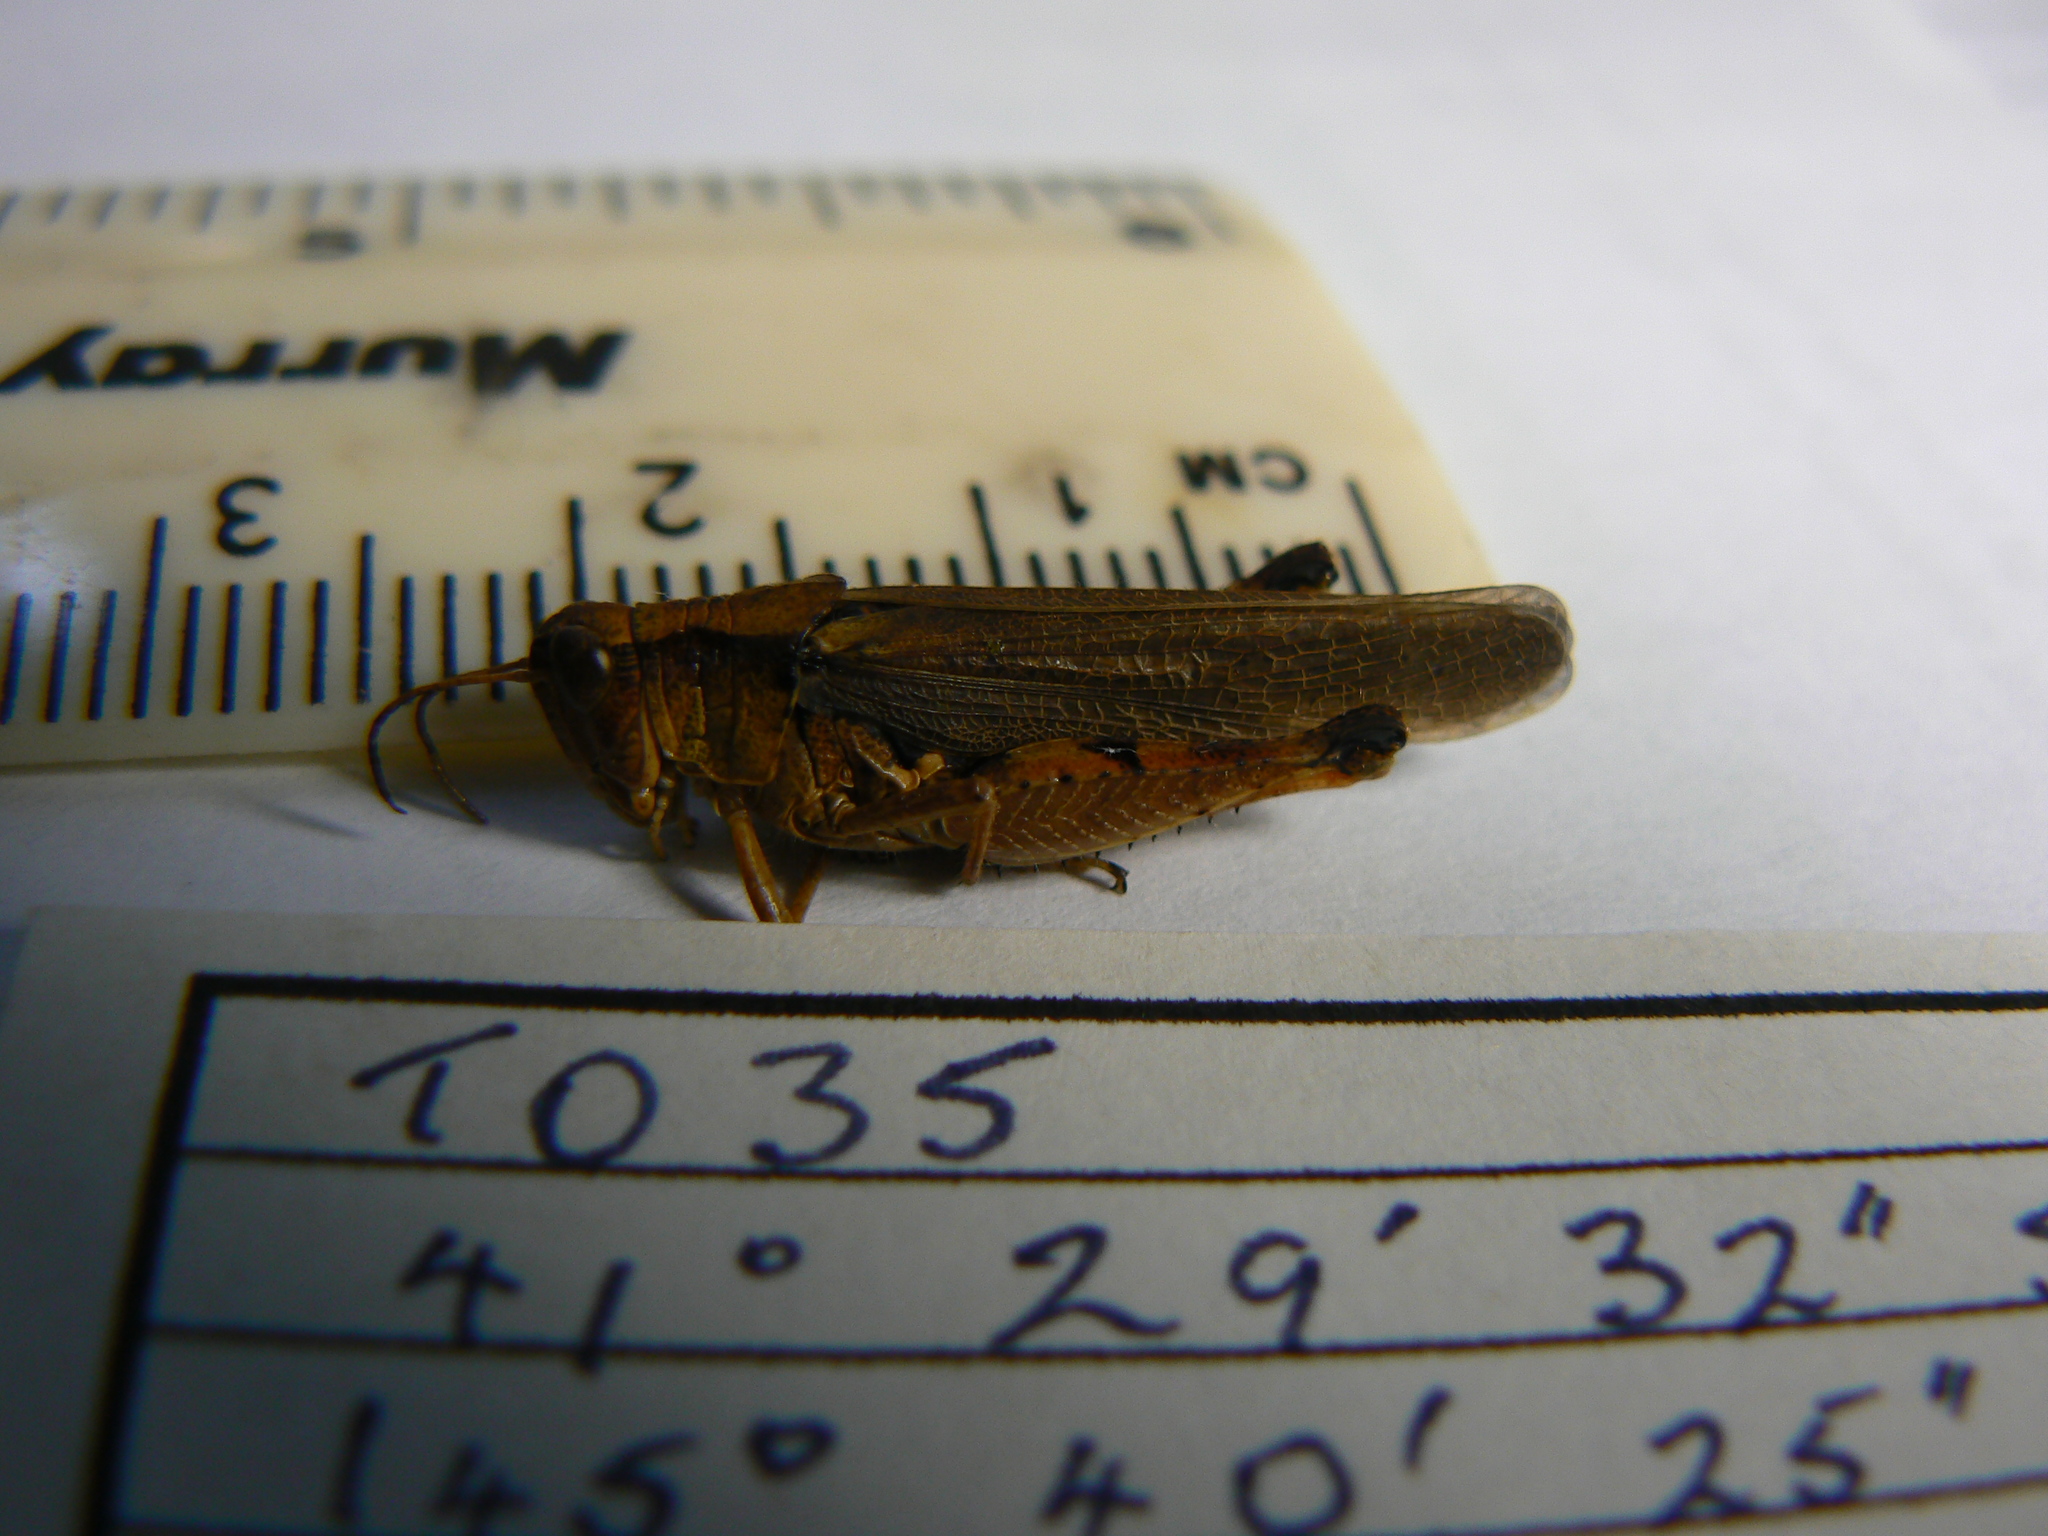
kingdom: Animalia
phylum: Arthropoda
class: Insecta
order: Orthoptera
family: Acrididae
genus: Phaulacridium
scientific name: Phaulacridium vittatum
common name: Wingless grasshopper
